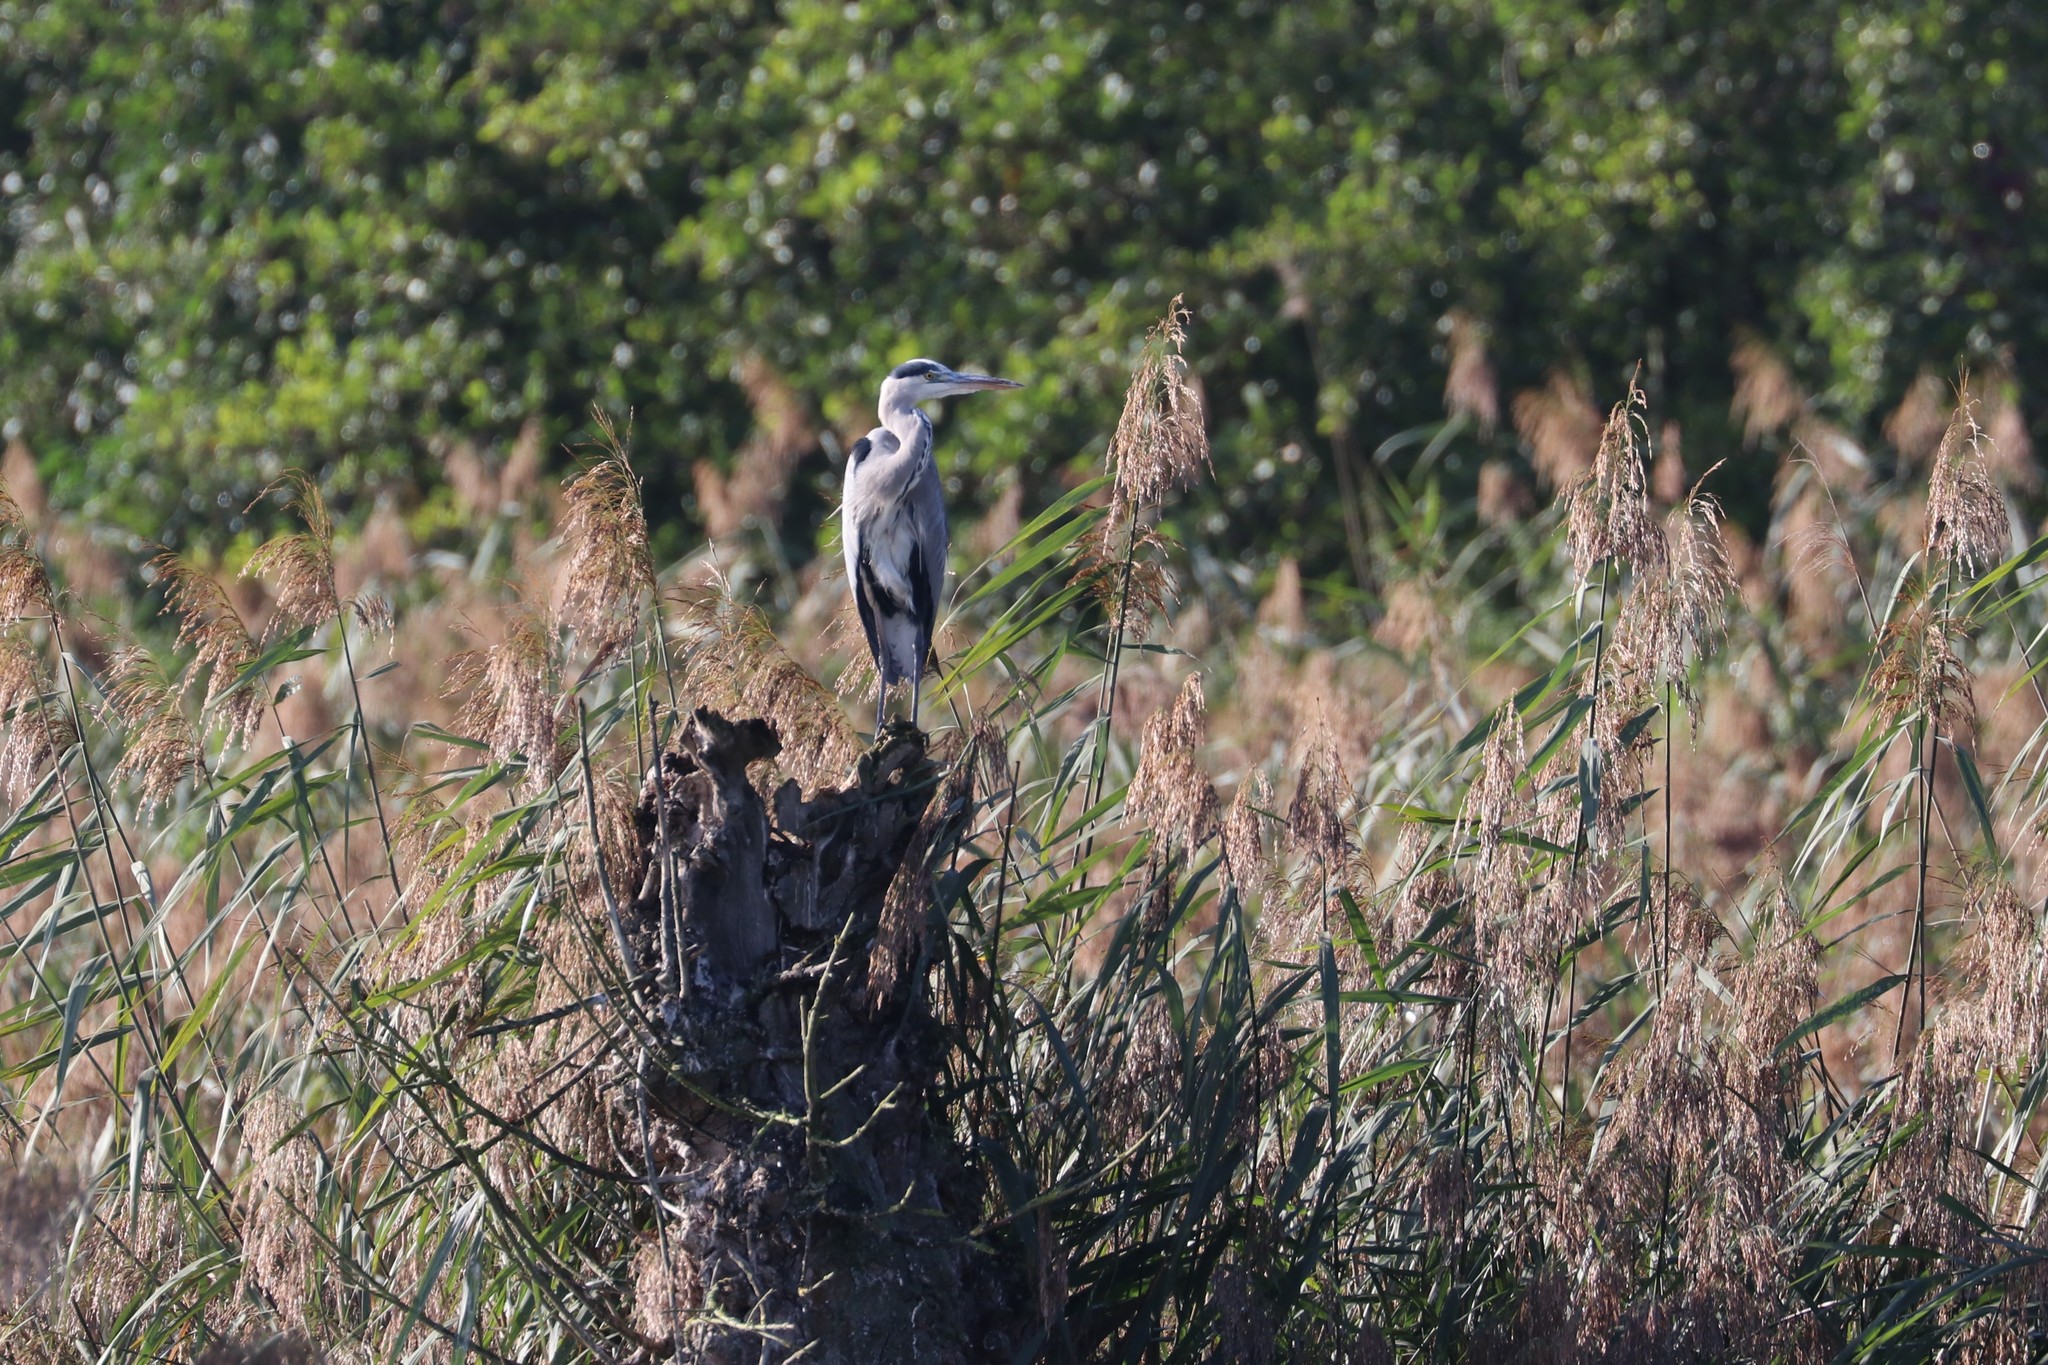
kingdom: Animalia
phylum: Chordata
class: Aves
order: Pelecaniformes
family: Ardeidae
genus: Ardea
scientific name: Ardea cinerea
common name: Grey heron
